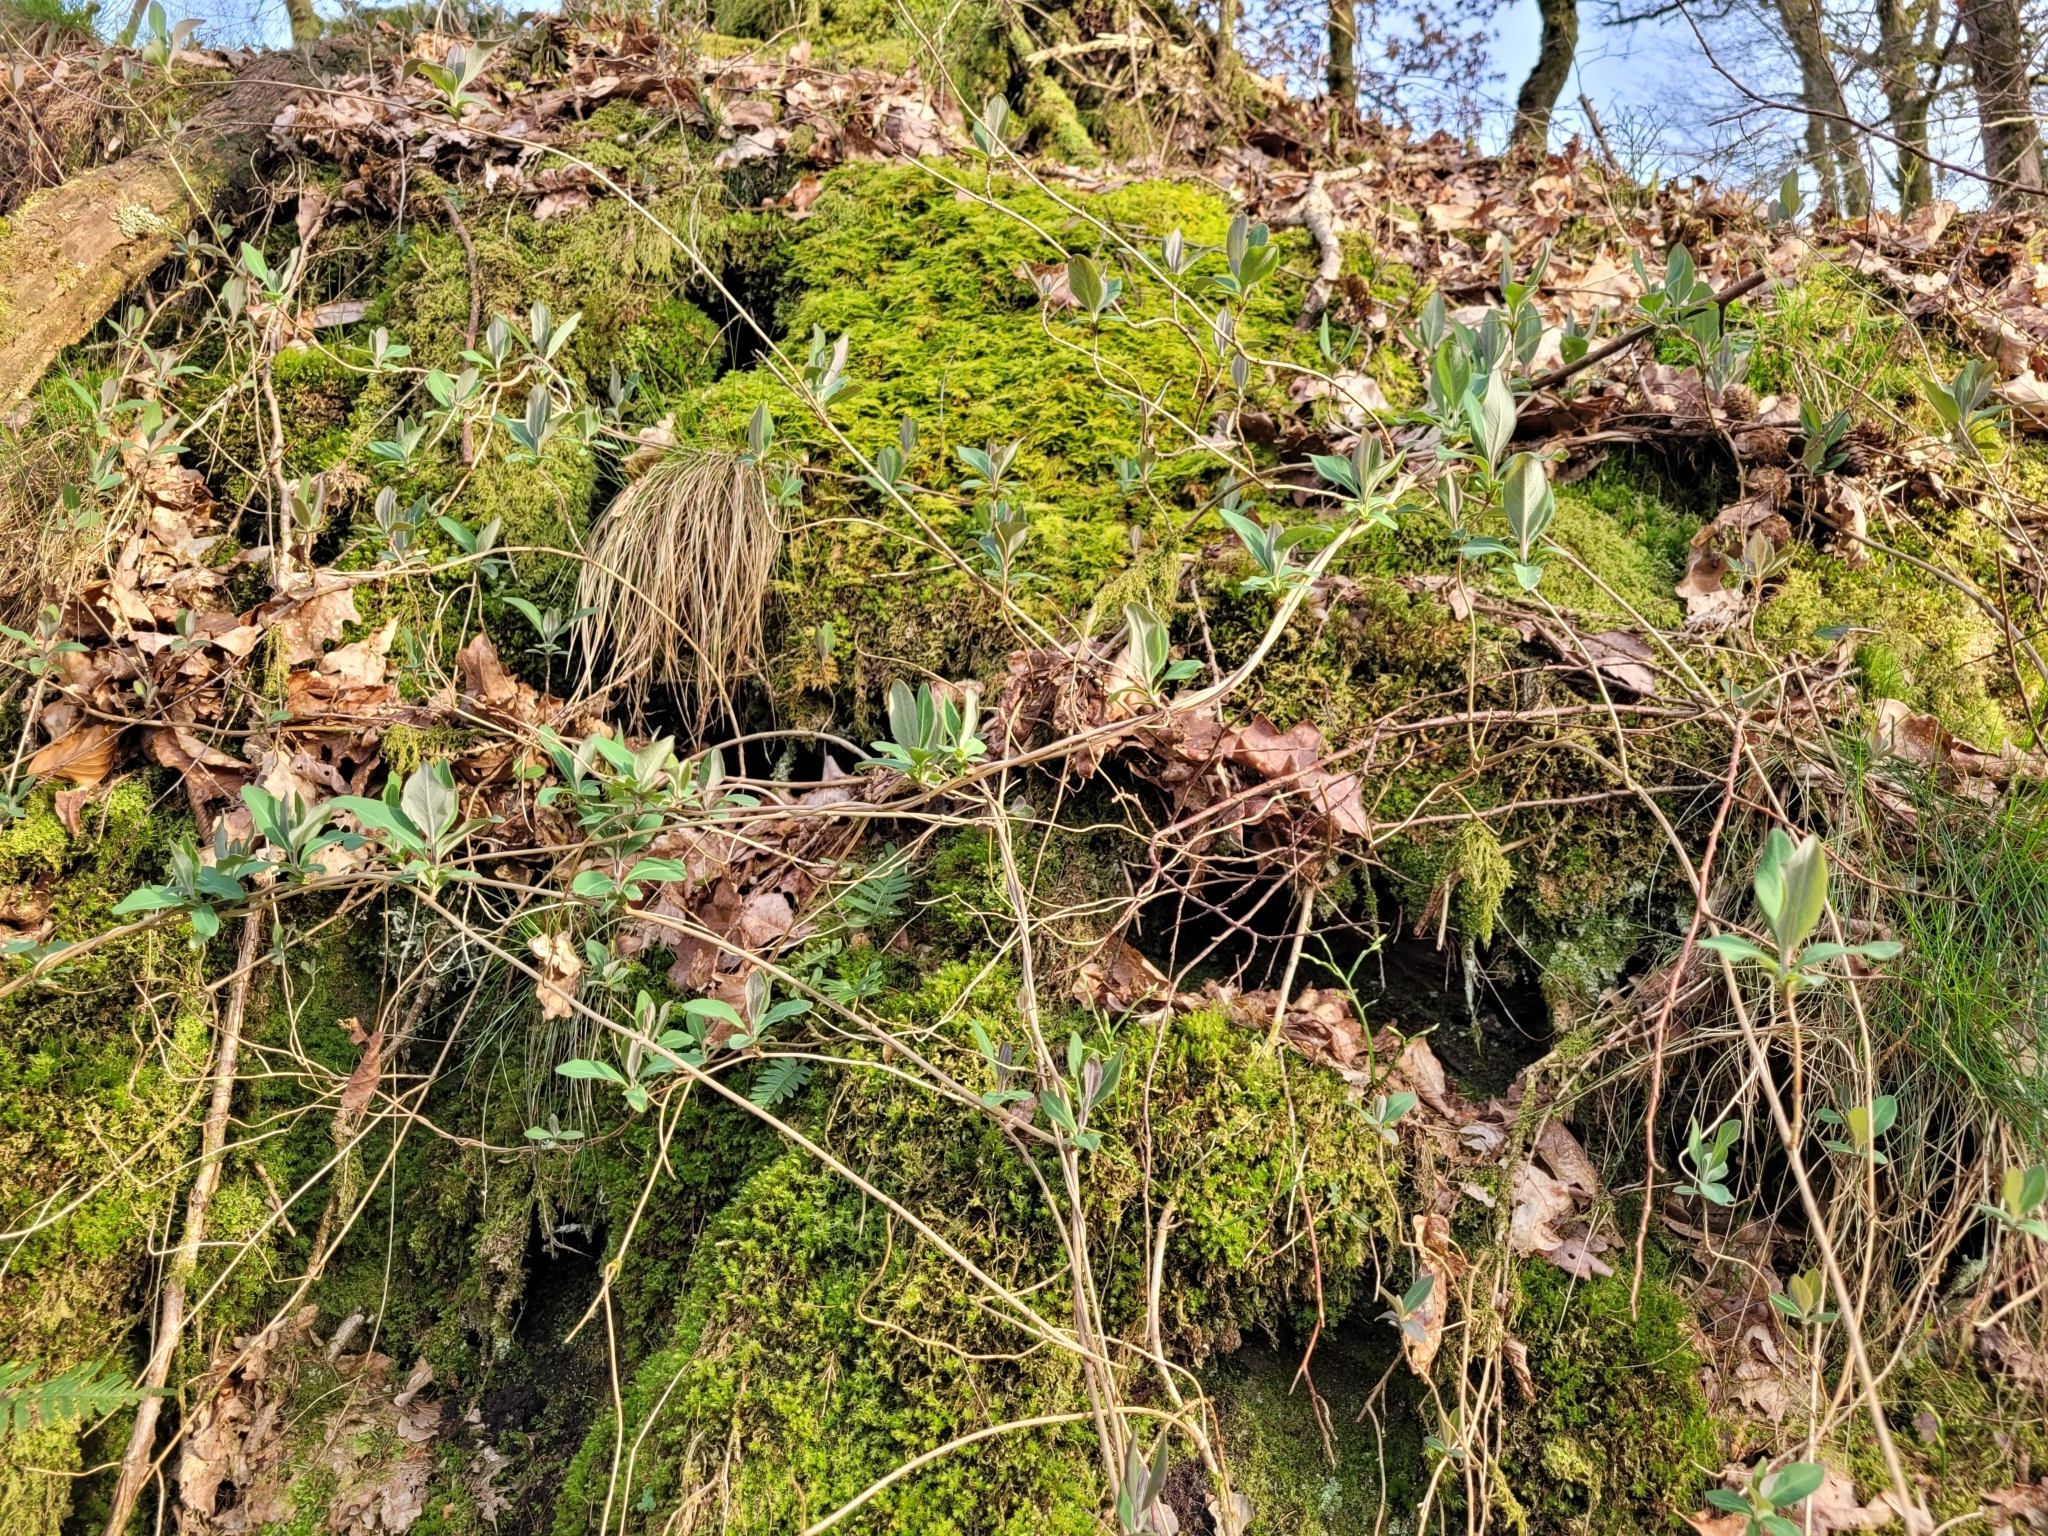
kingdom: Plantae
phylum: Tracheophyta
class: Magnoliopsida
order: Dipsacales
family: Caprifoliaceae
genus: Lonicera
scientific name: Lonicera periclymenum
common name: European honeysuckle
